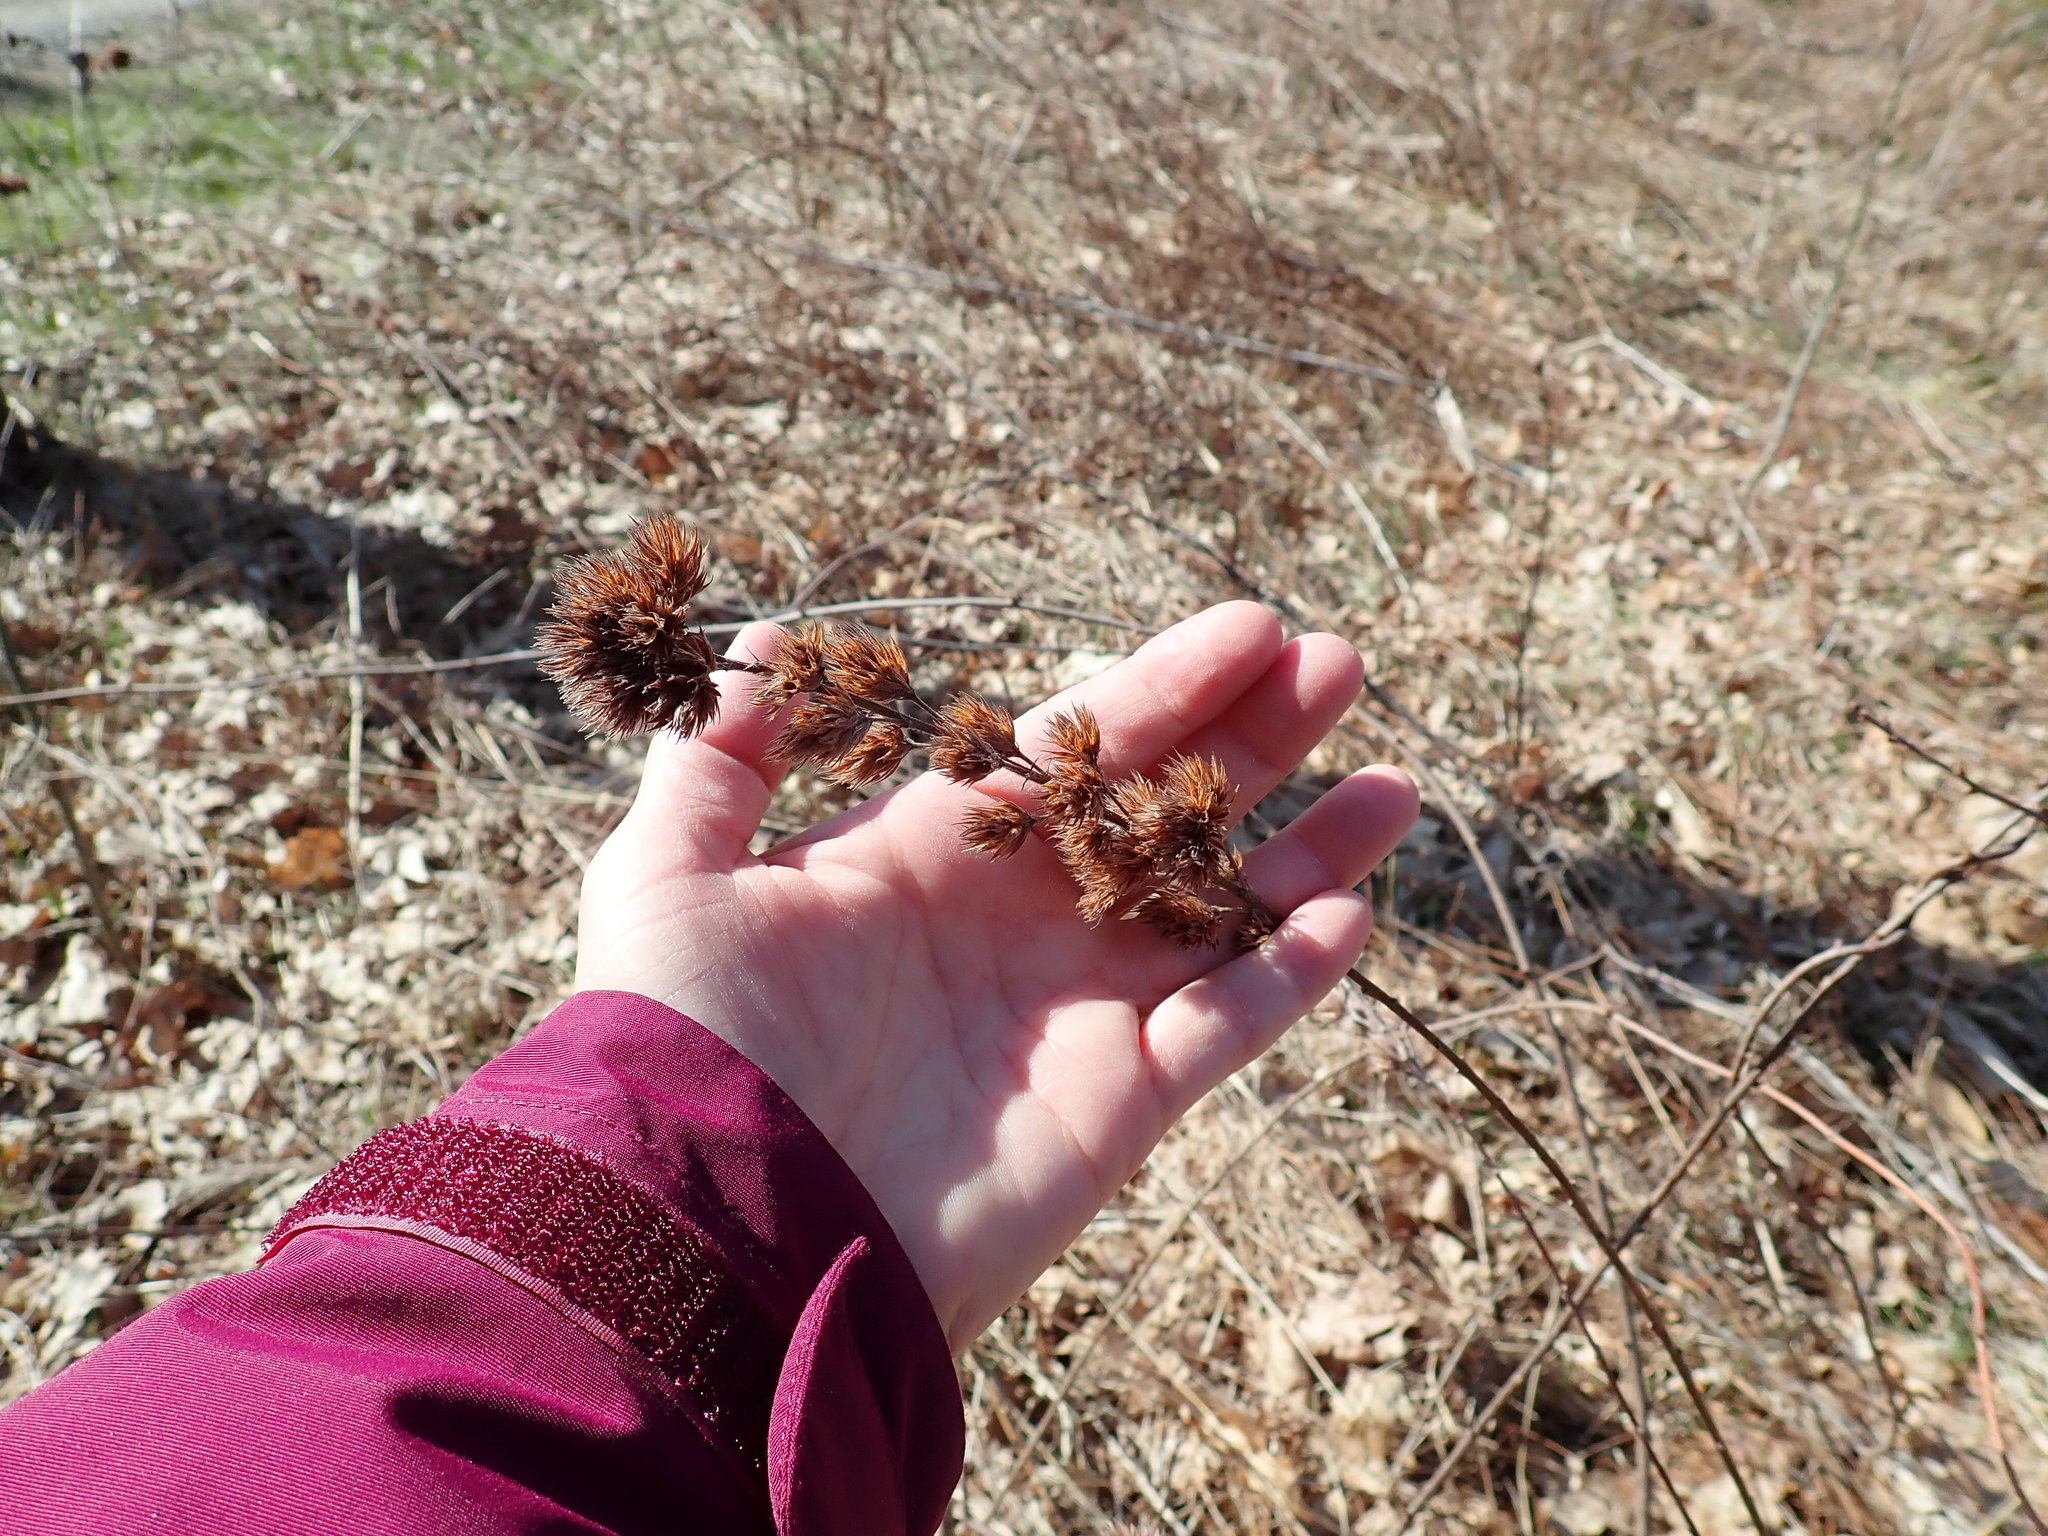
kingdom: Plantae
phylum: Tracheophyta
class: Magnoliopsida
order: Fabales
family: Fabaceae
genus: Lespedeza
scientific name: Lespedeza capitata
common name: Dusty clover
